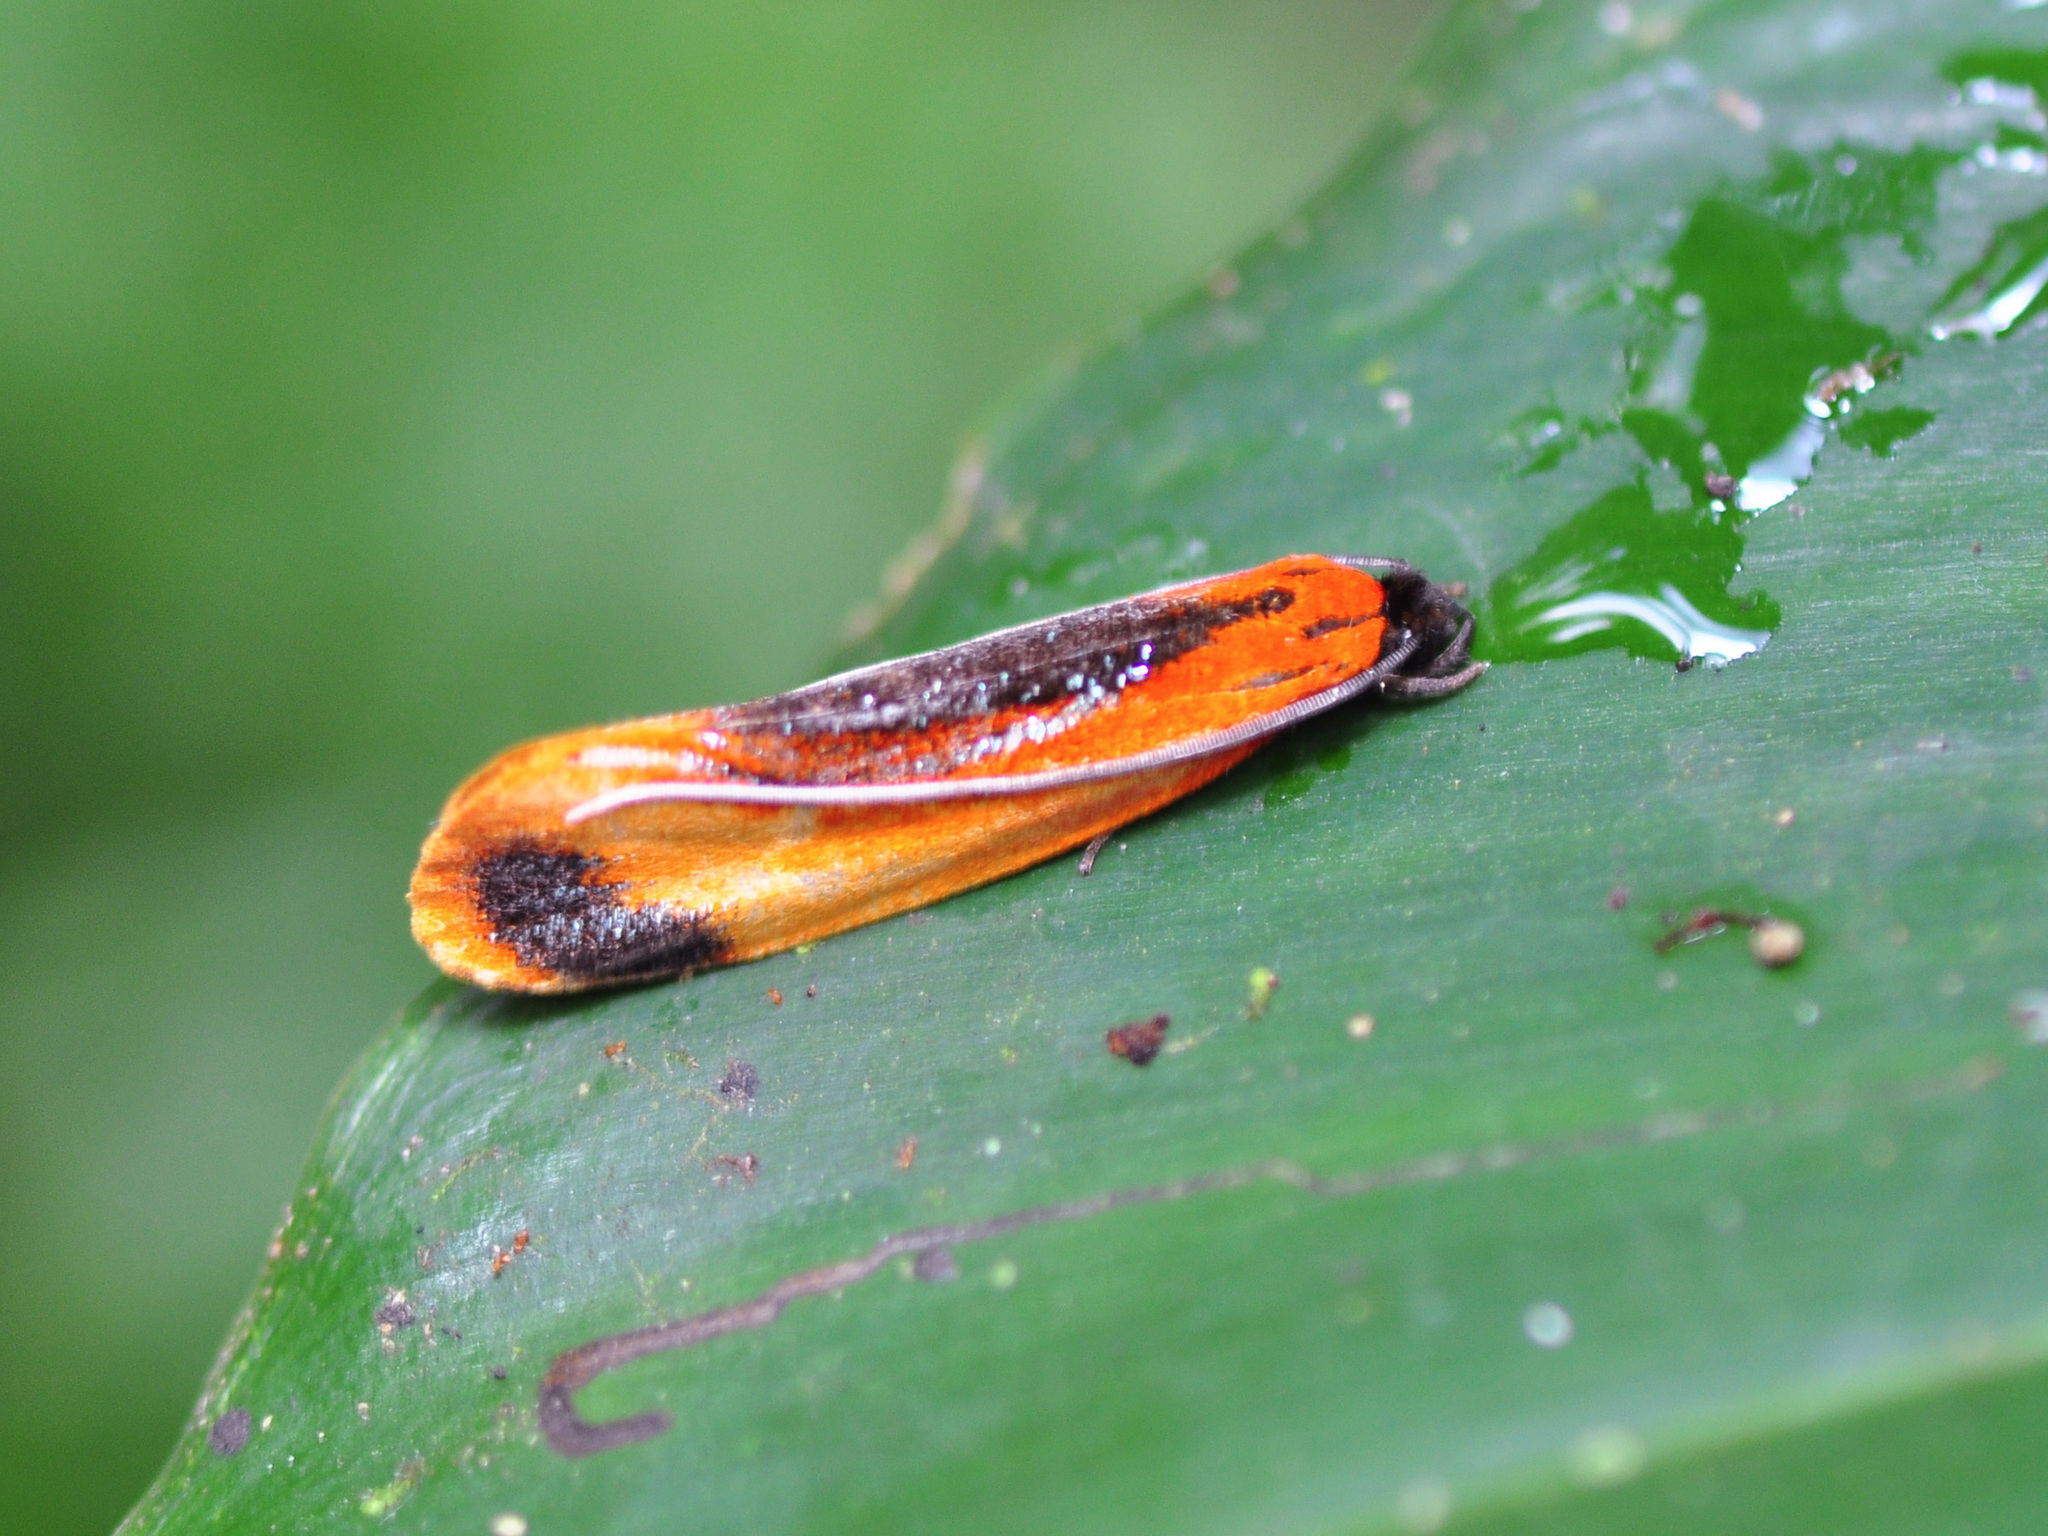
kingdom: Animalia
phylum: Arthropoda
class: Insecta
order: Lepidoptera
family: Tineidae
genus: Coryptilum
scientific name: Coryptilum klugii
